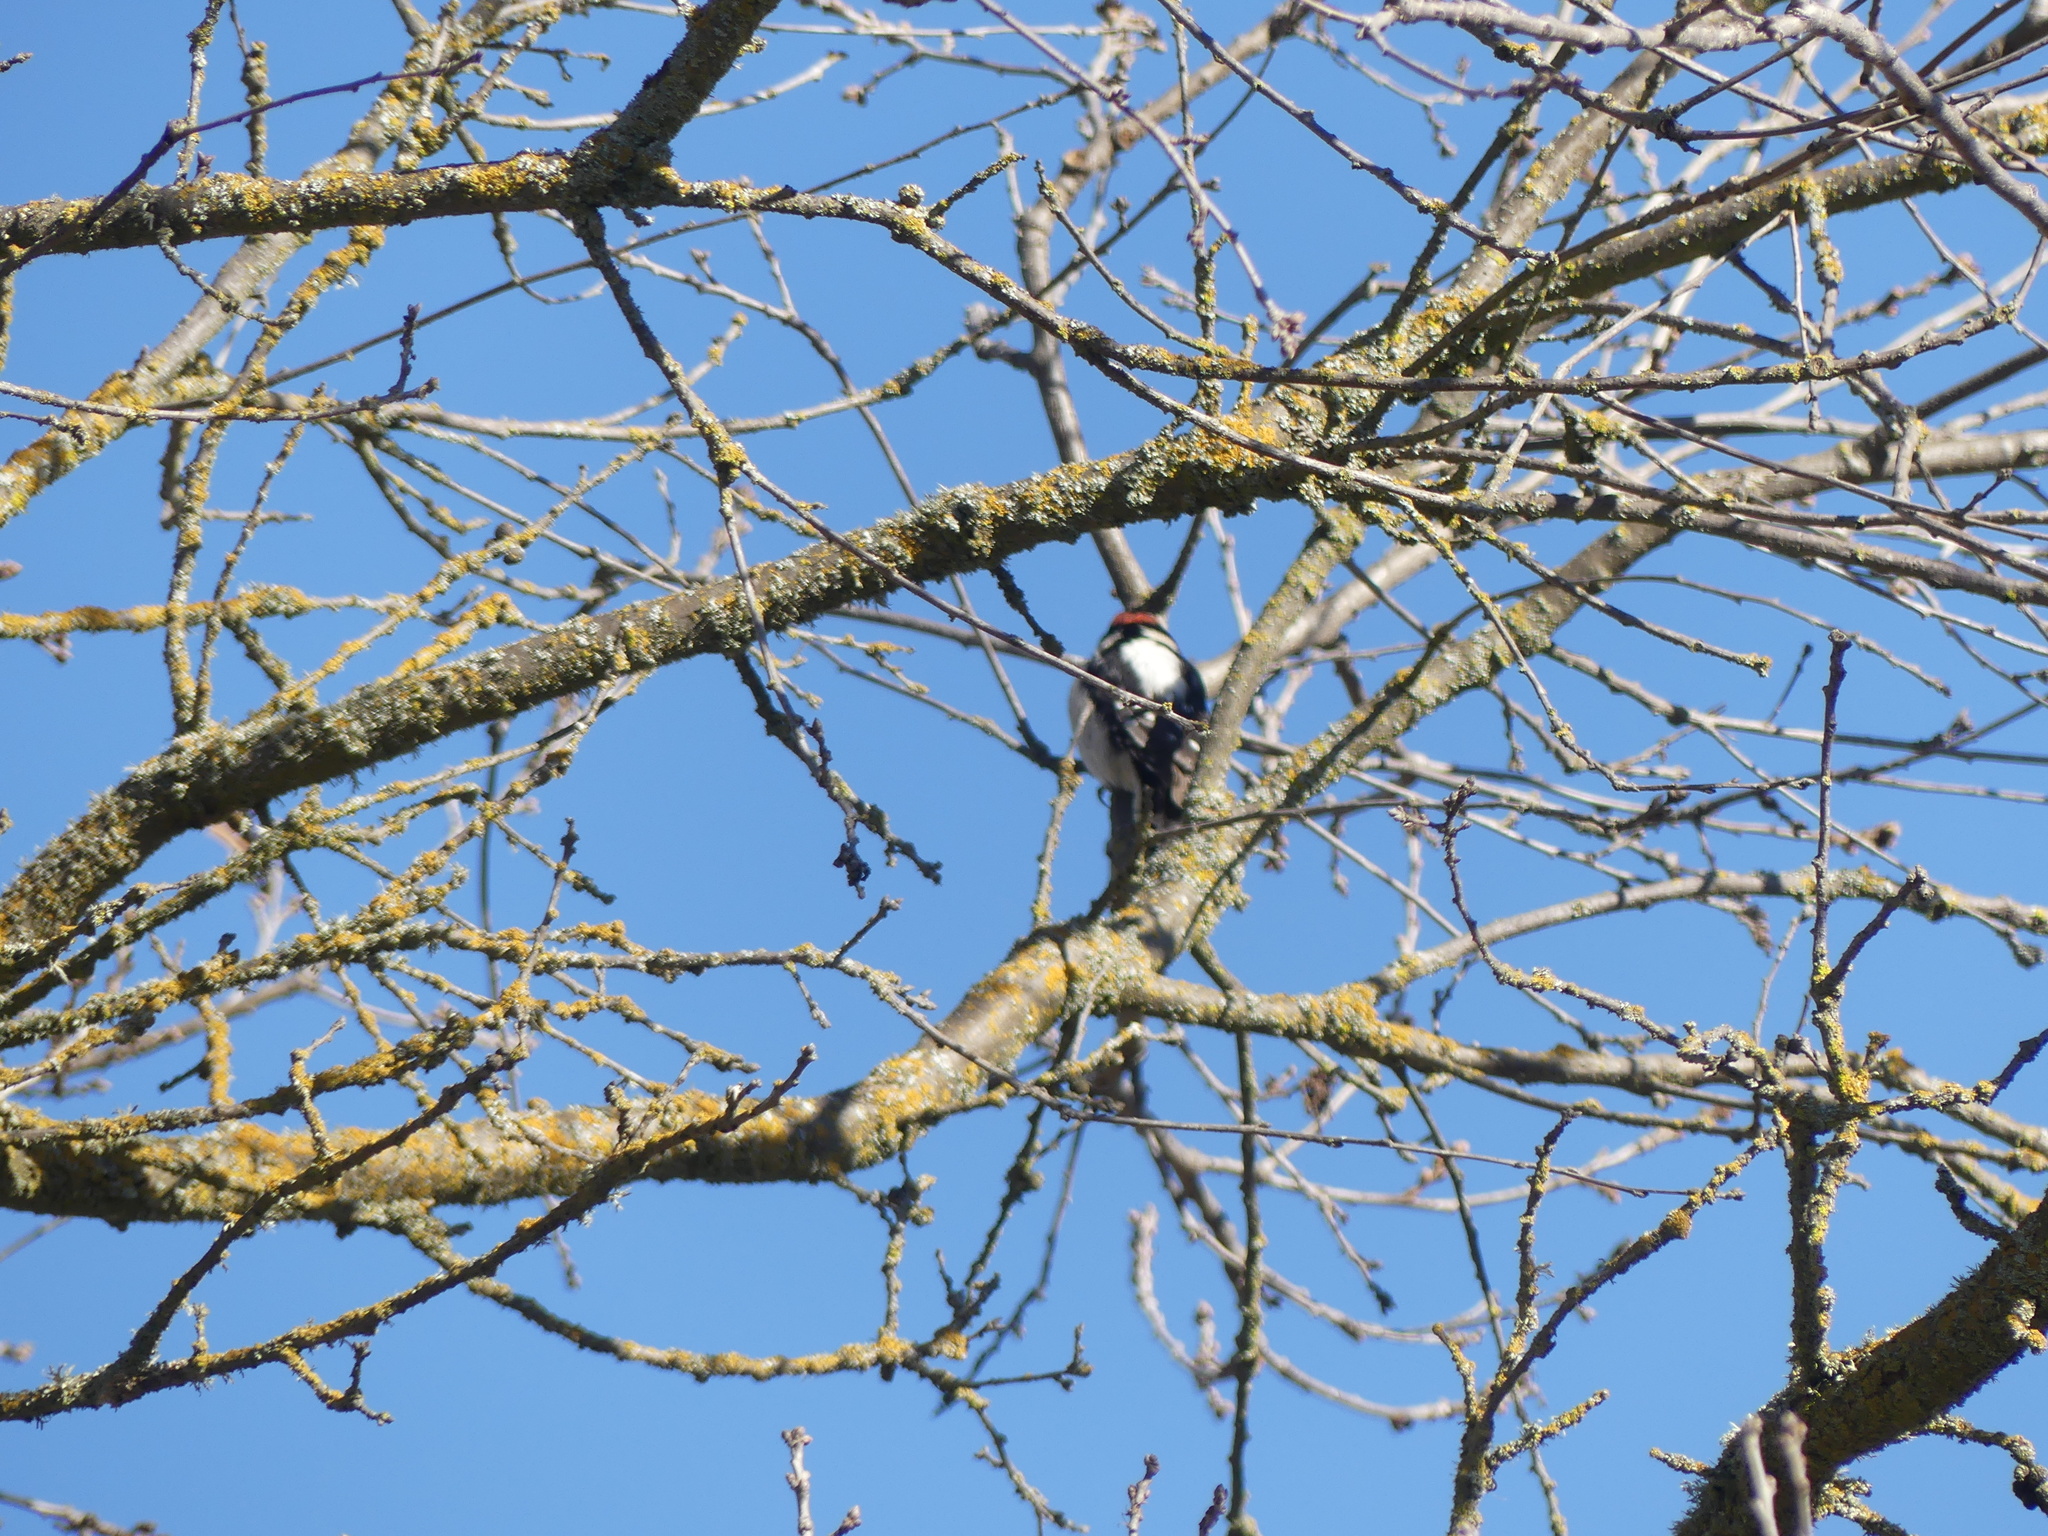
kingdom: Animalia
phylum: Chordata
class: Aves
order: Piciformes
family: Picidae
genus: Dryobates
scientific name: Dryobates pubescens
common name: Downy woodpecker
